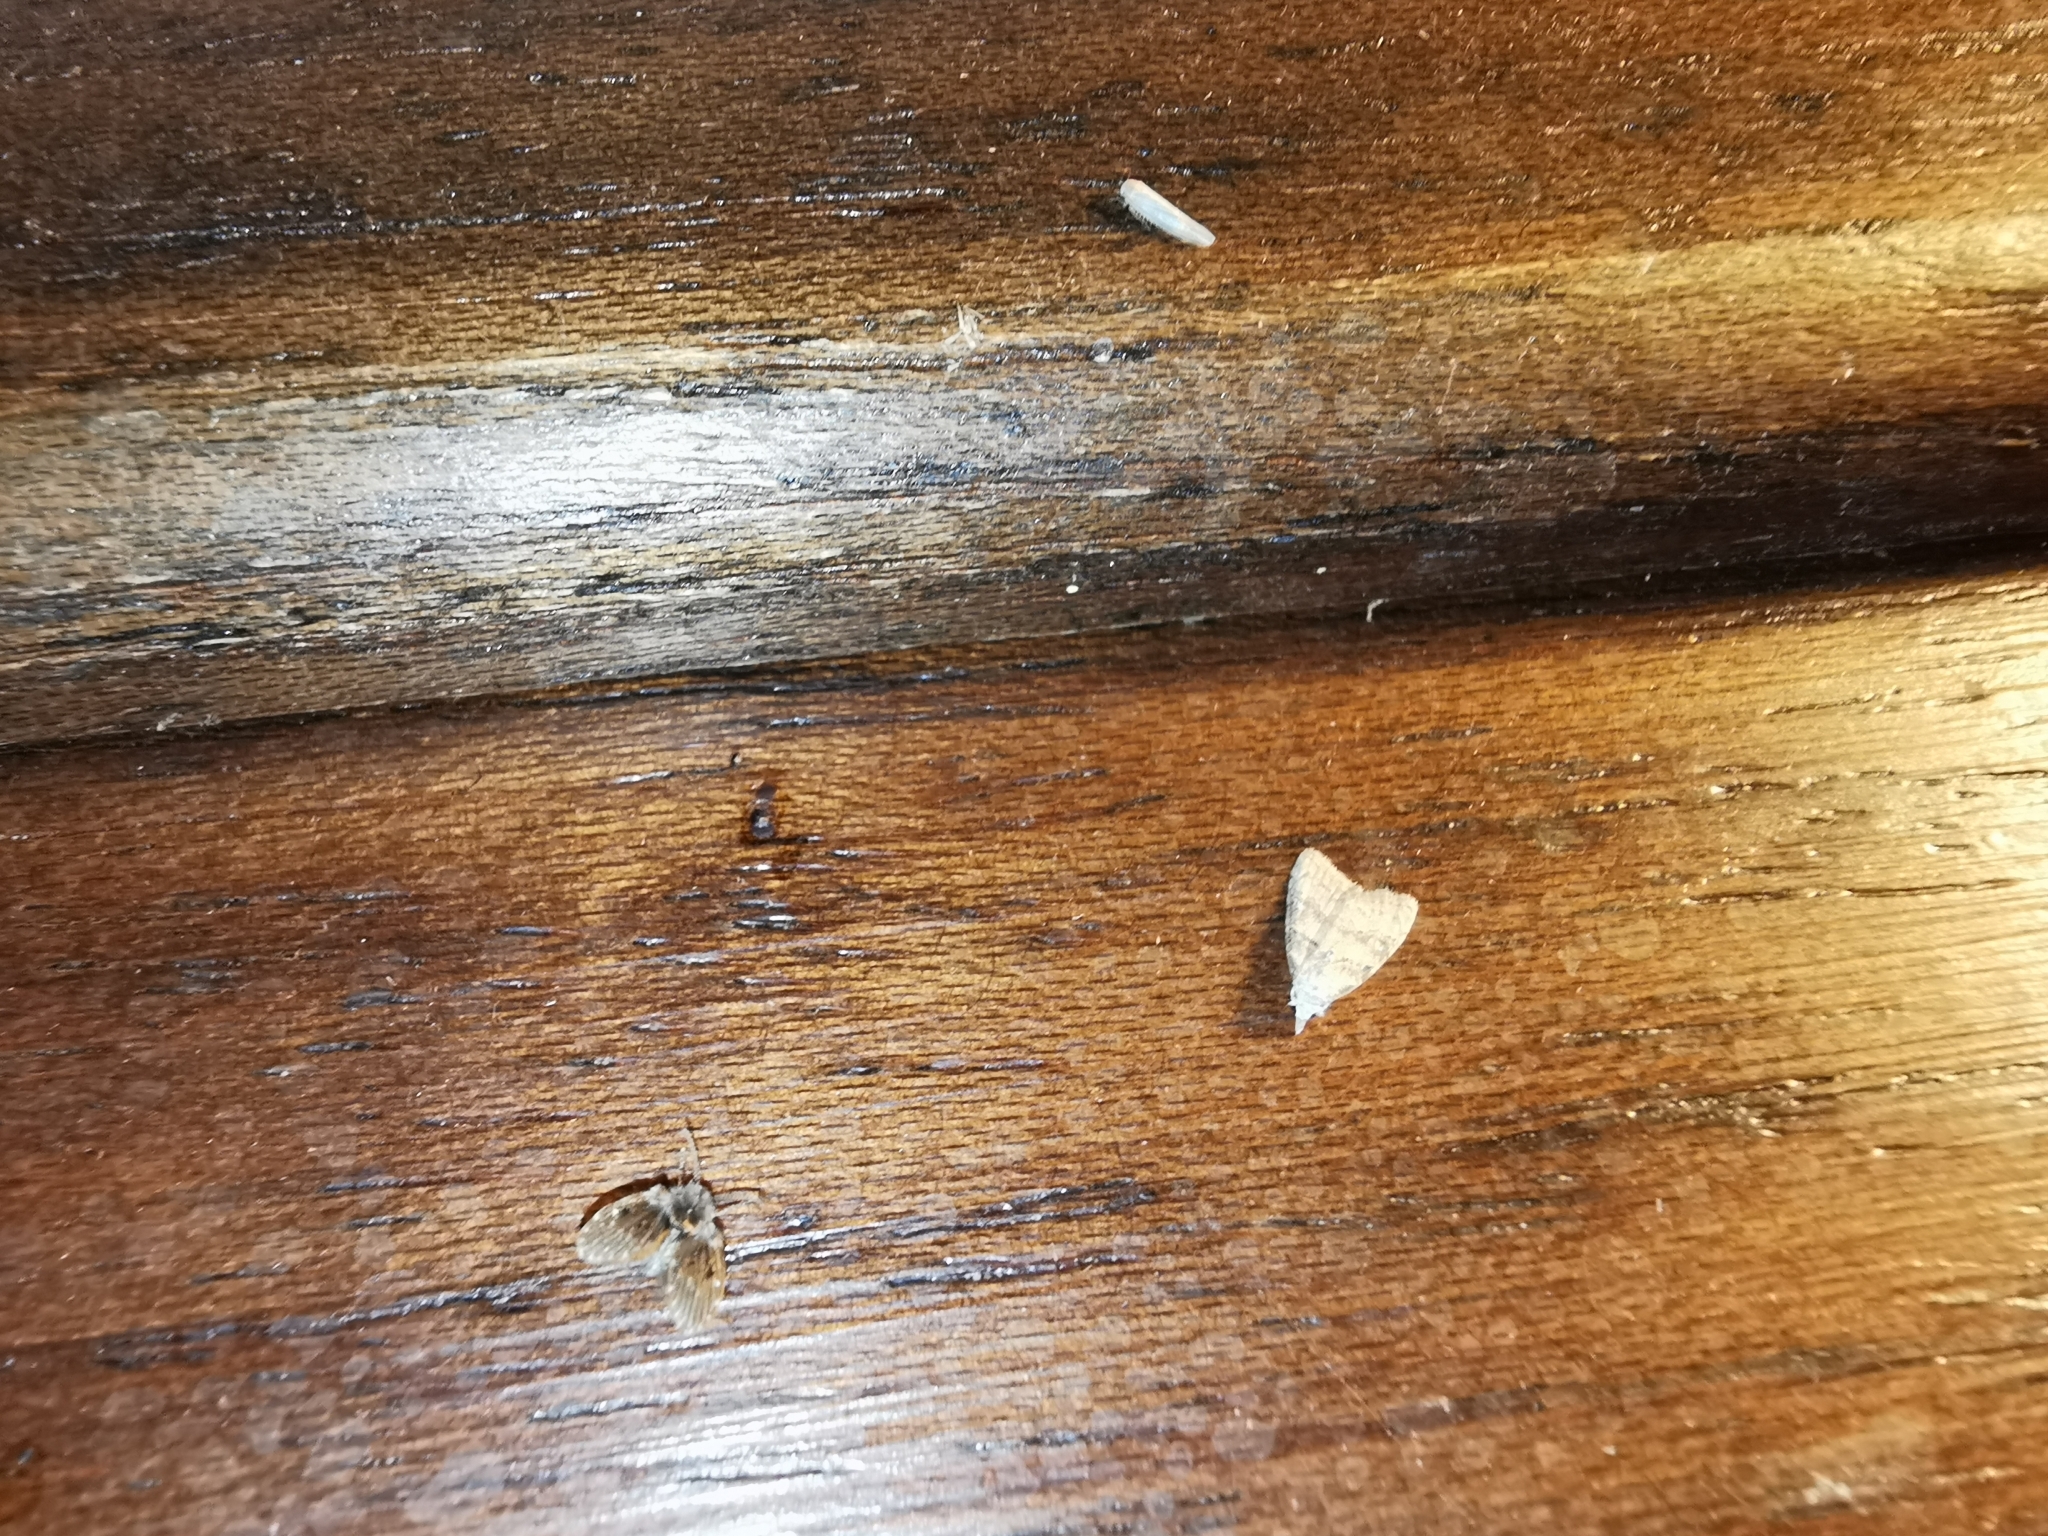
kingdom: Animalia
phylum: Arthropoda
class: Insecta
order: Lepidoptera
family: Nolidae
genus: Nola
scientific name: Nola harouni
